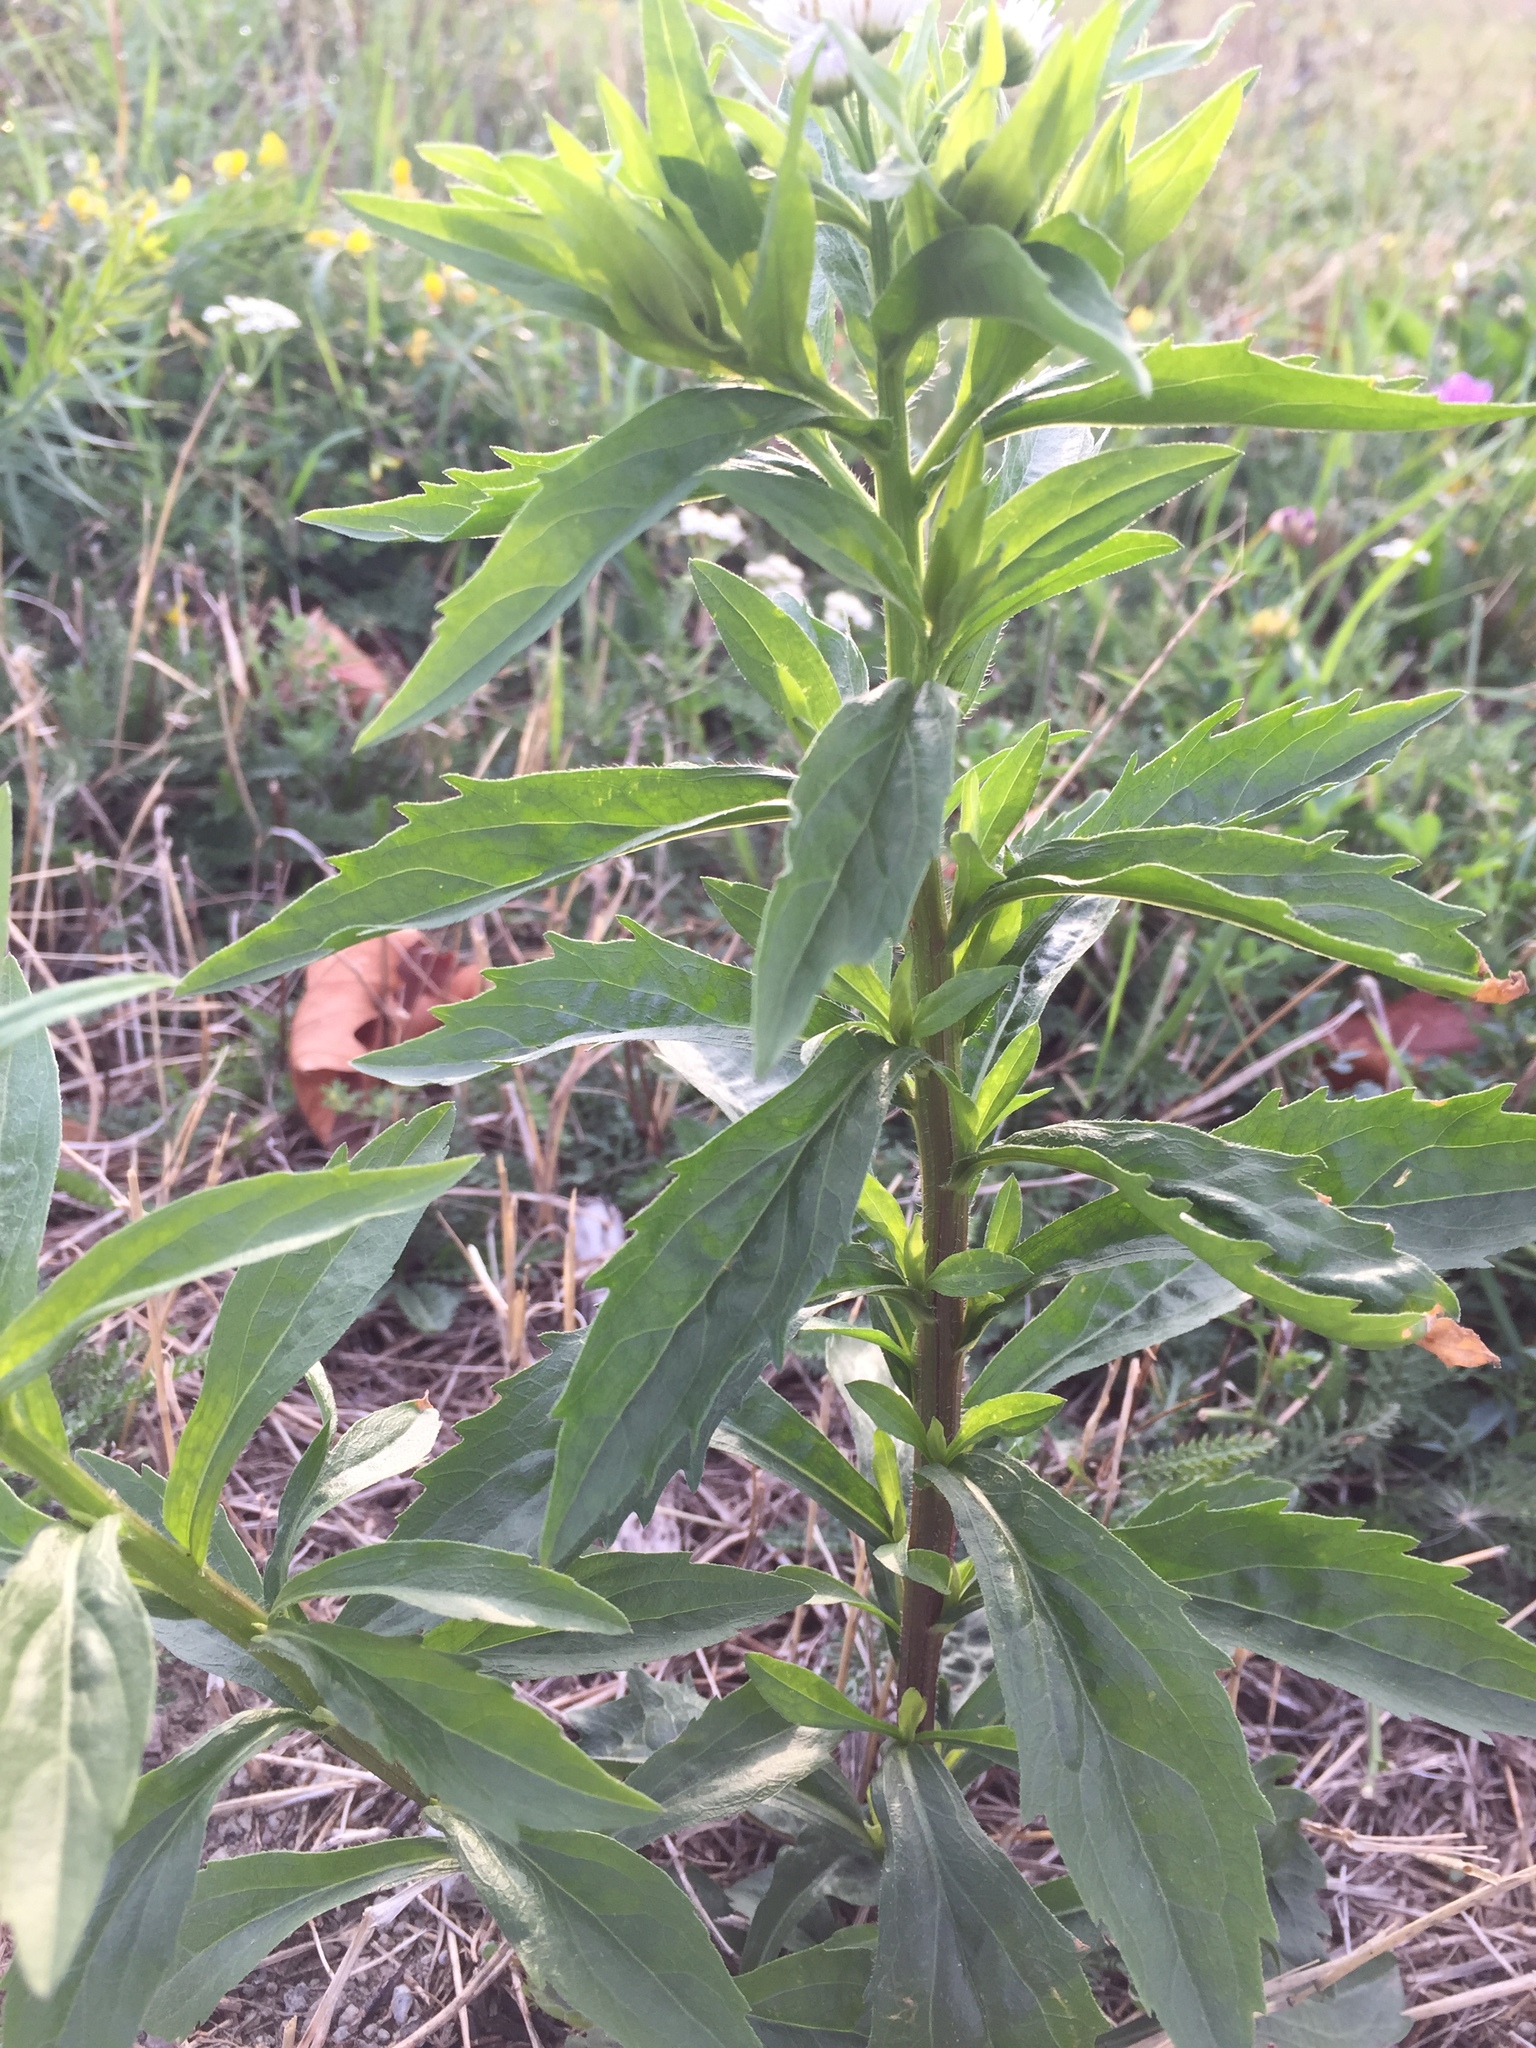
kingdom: Plantae
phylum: Tracheophyta
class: Magnoliopsida
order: Asterales
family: Asteraceae
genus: Erigeron
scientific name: Erigeron annuus
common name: Tall fleabane
